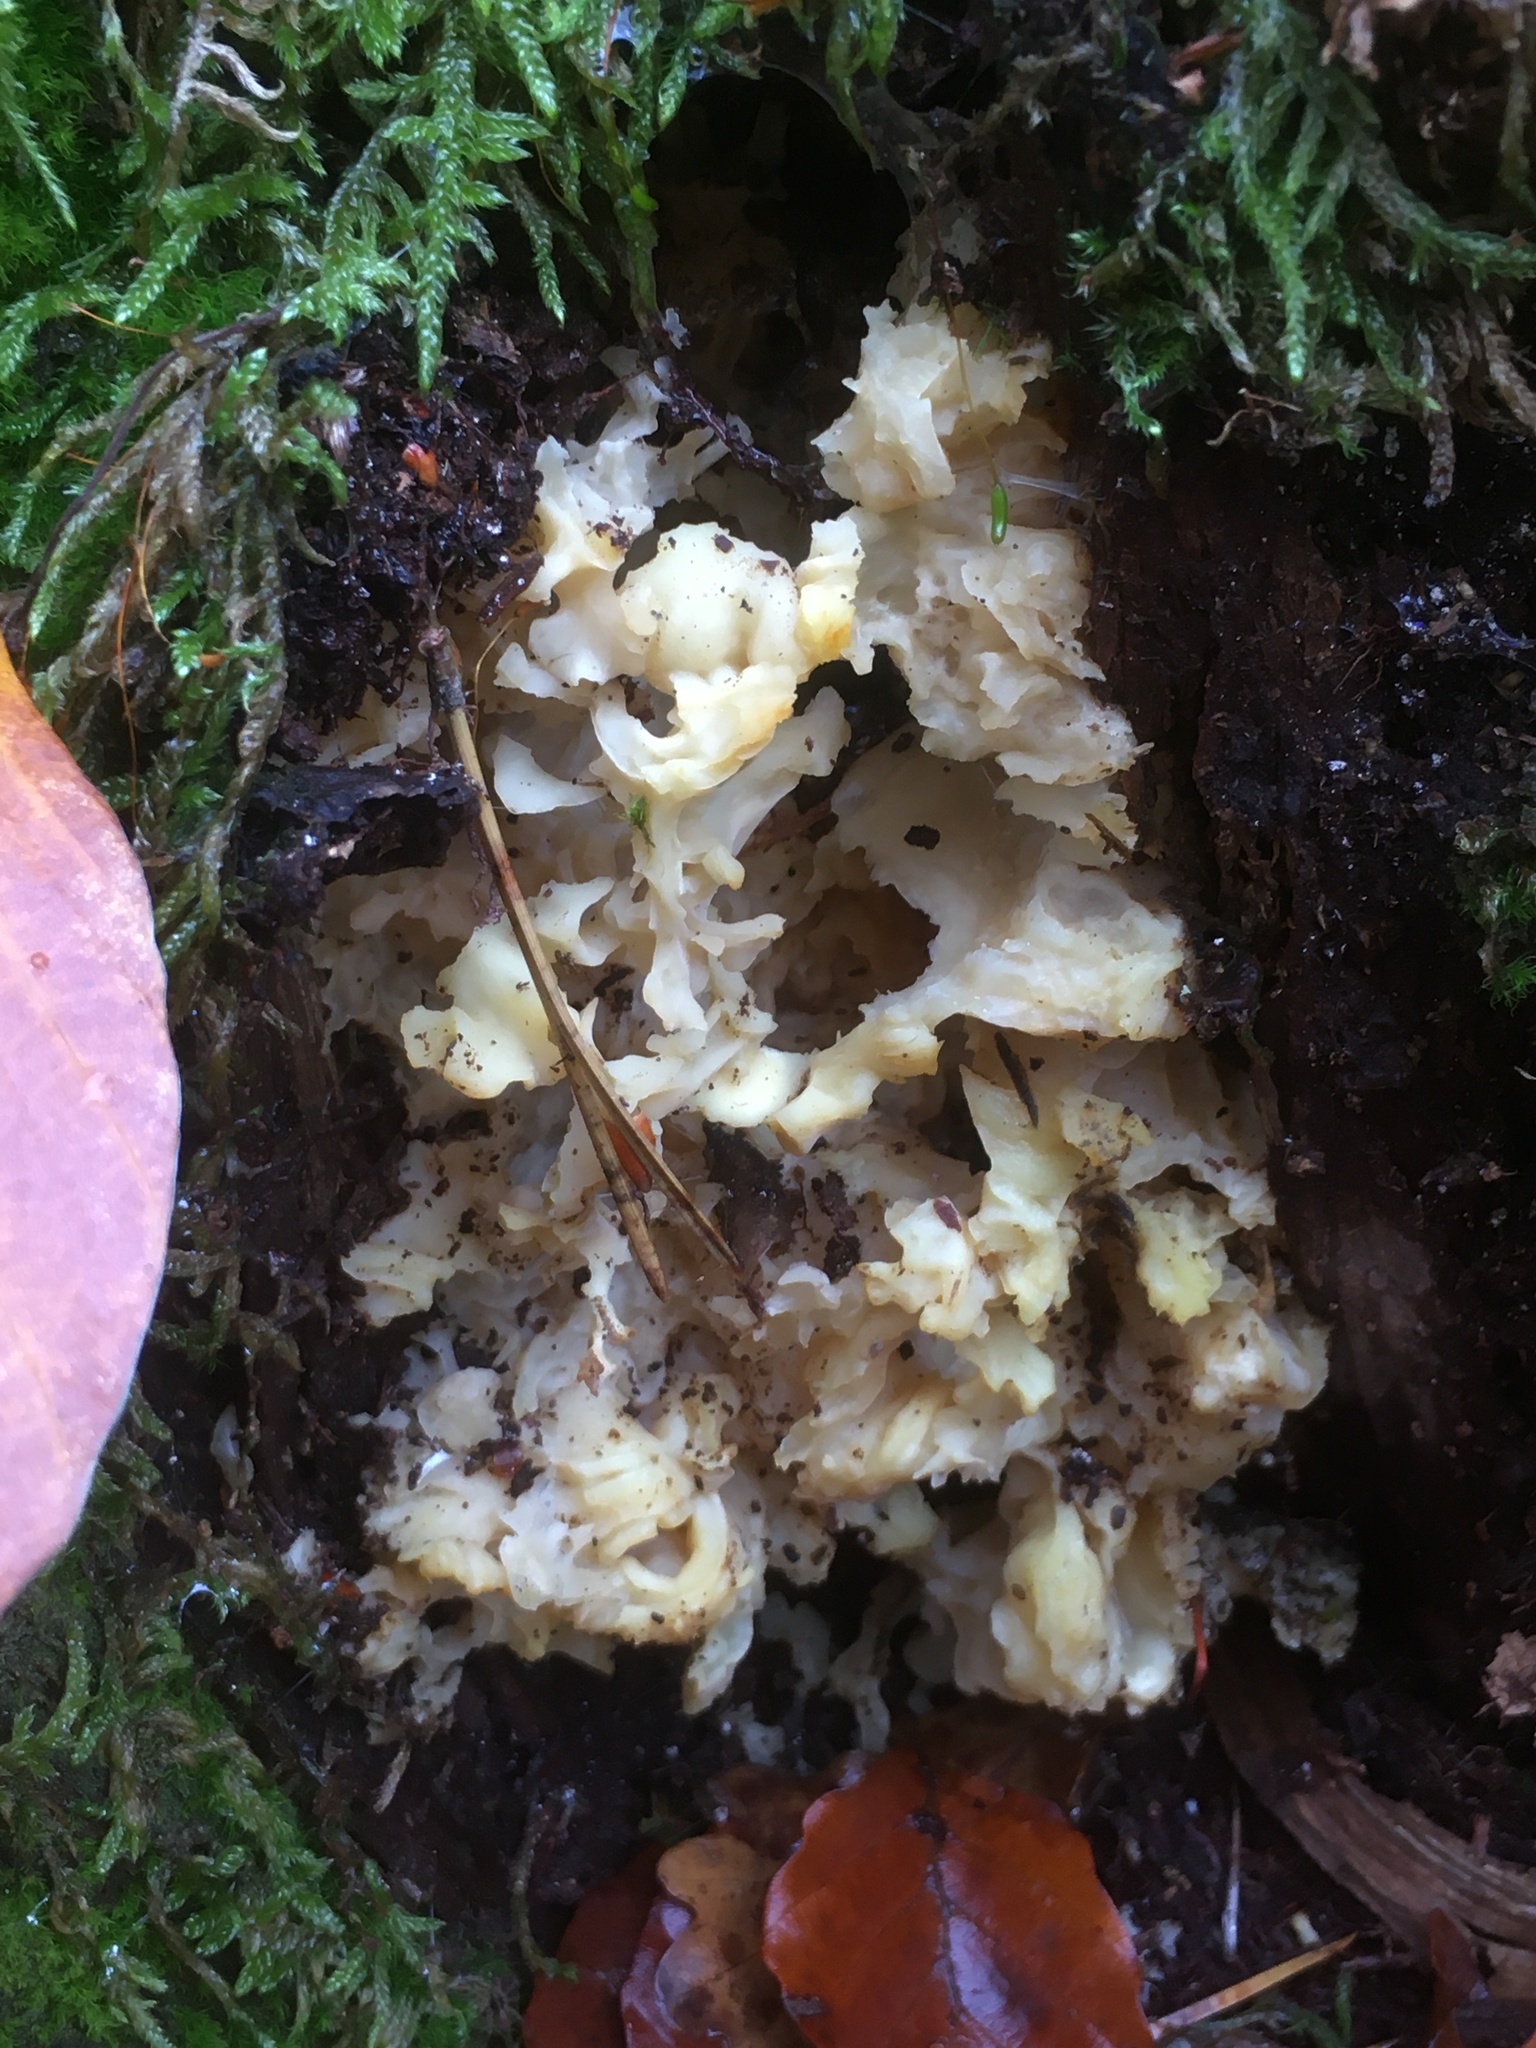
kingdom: Fungi
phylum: Basidiomycota
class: Agaricomycetes
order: Polyporales
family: Sparassidaceae
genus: Sparassis
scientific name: Sparassis crispa
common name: Brain fungus
